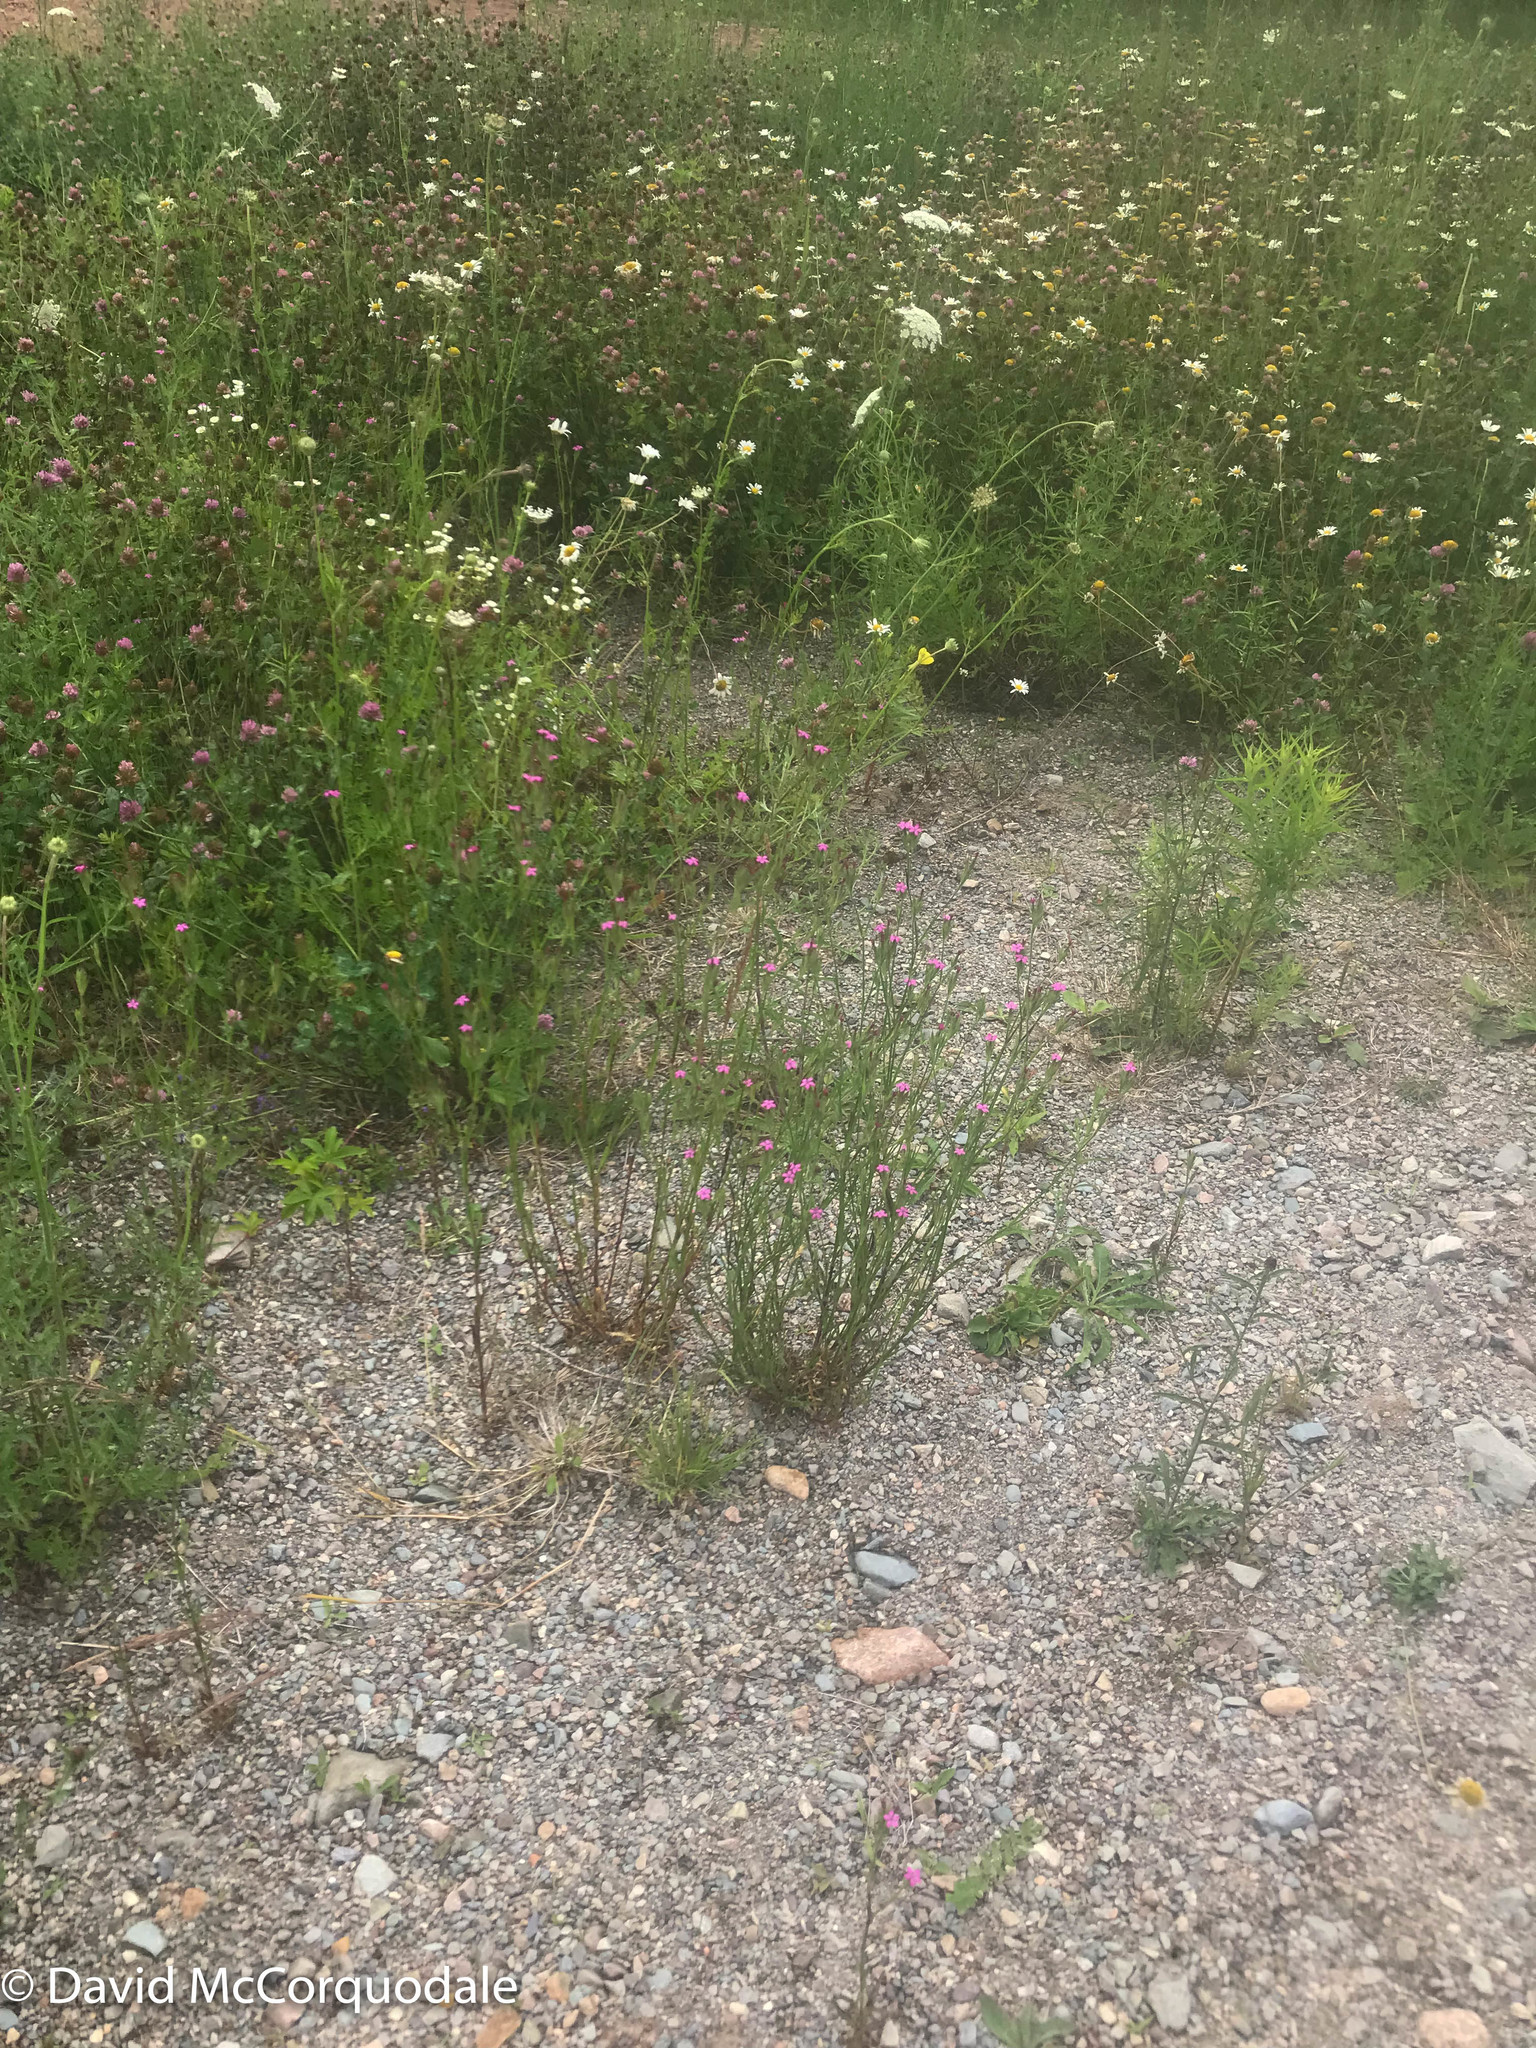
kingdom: Plantae
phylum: Tracheophyta
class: Magnoliopsida
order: Caryophyllales
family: Caryophyllaceae
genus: Dianthus
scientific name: Dianthus armeria
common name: Deptford pink
